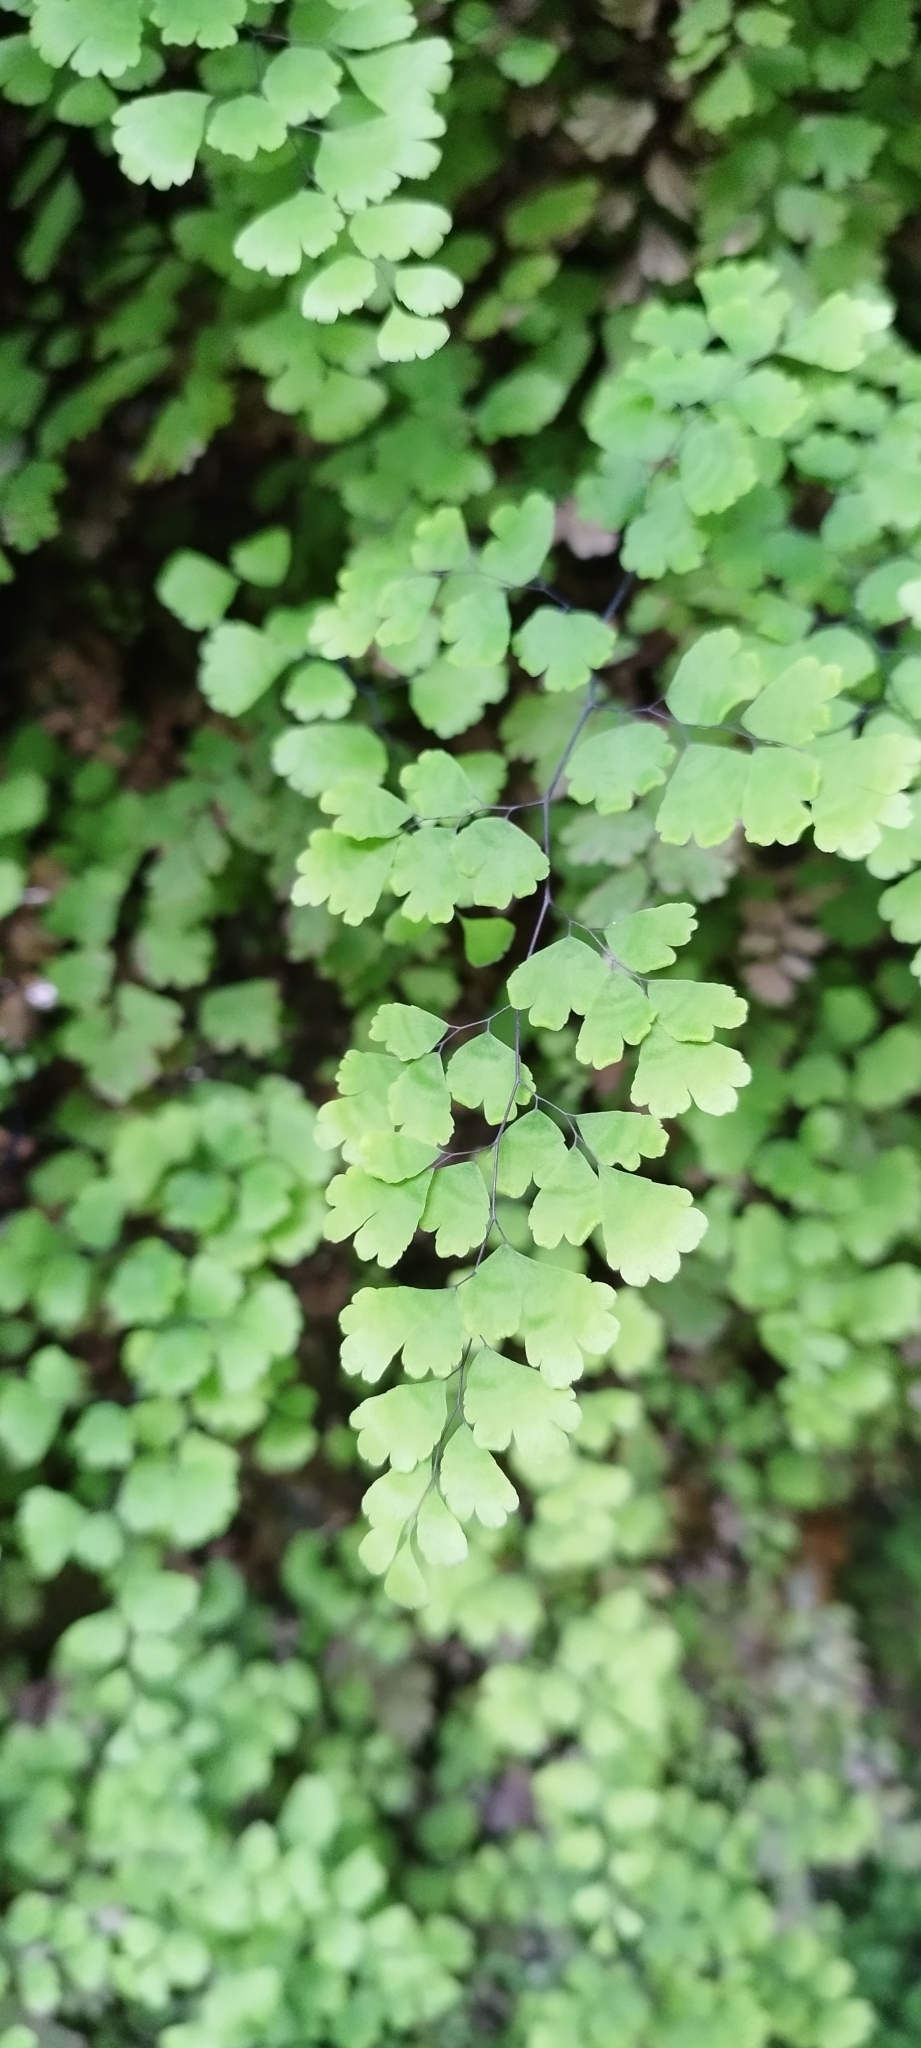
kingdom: Plantae
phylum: Tracheophyta
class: Polypodiopsida
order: Polypodiales
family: Pteridaceae
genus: Adiantum
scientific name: Adiantum capillus-veneris
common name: Maidenhair fern
